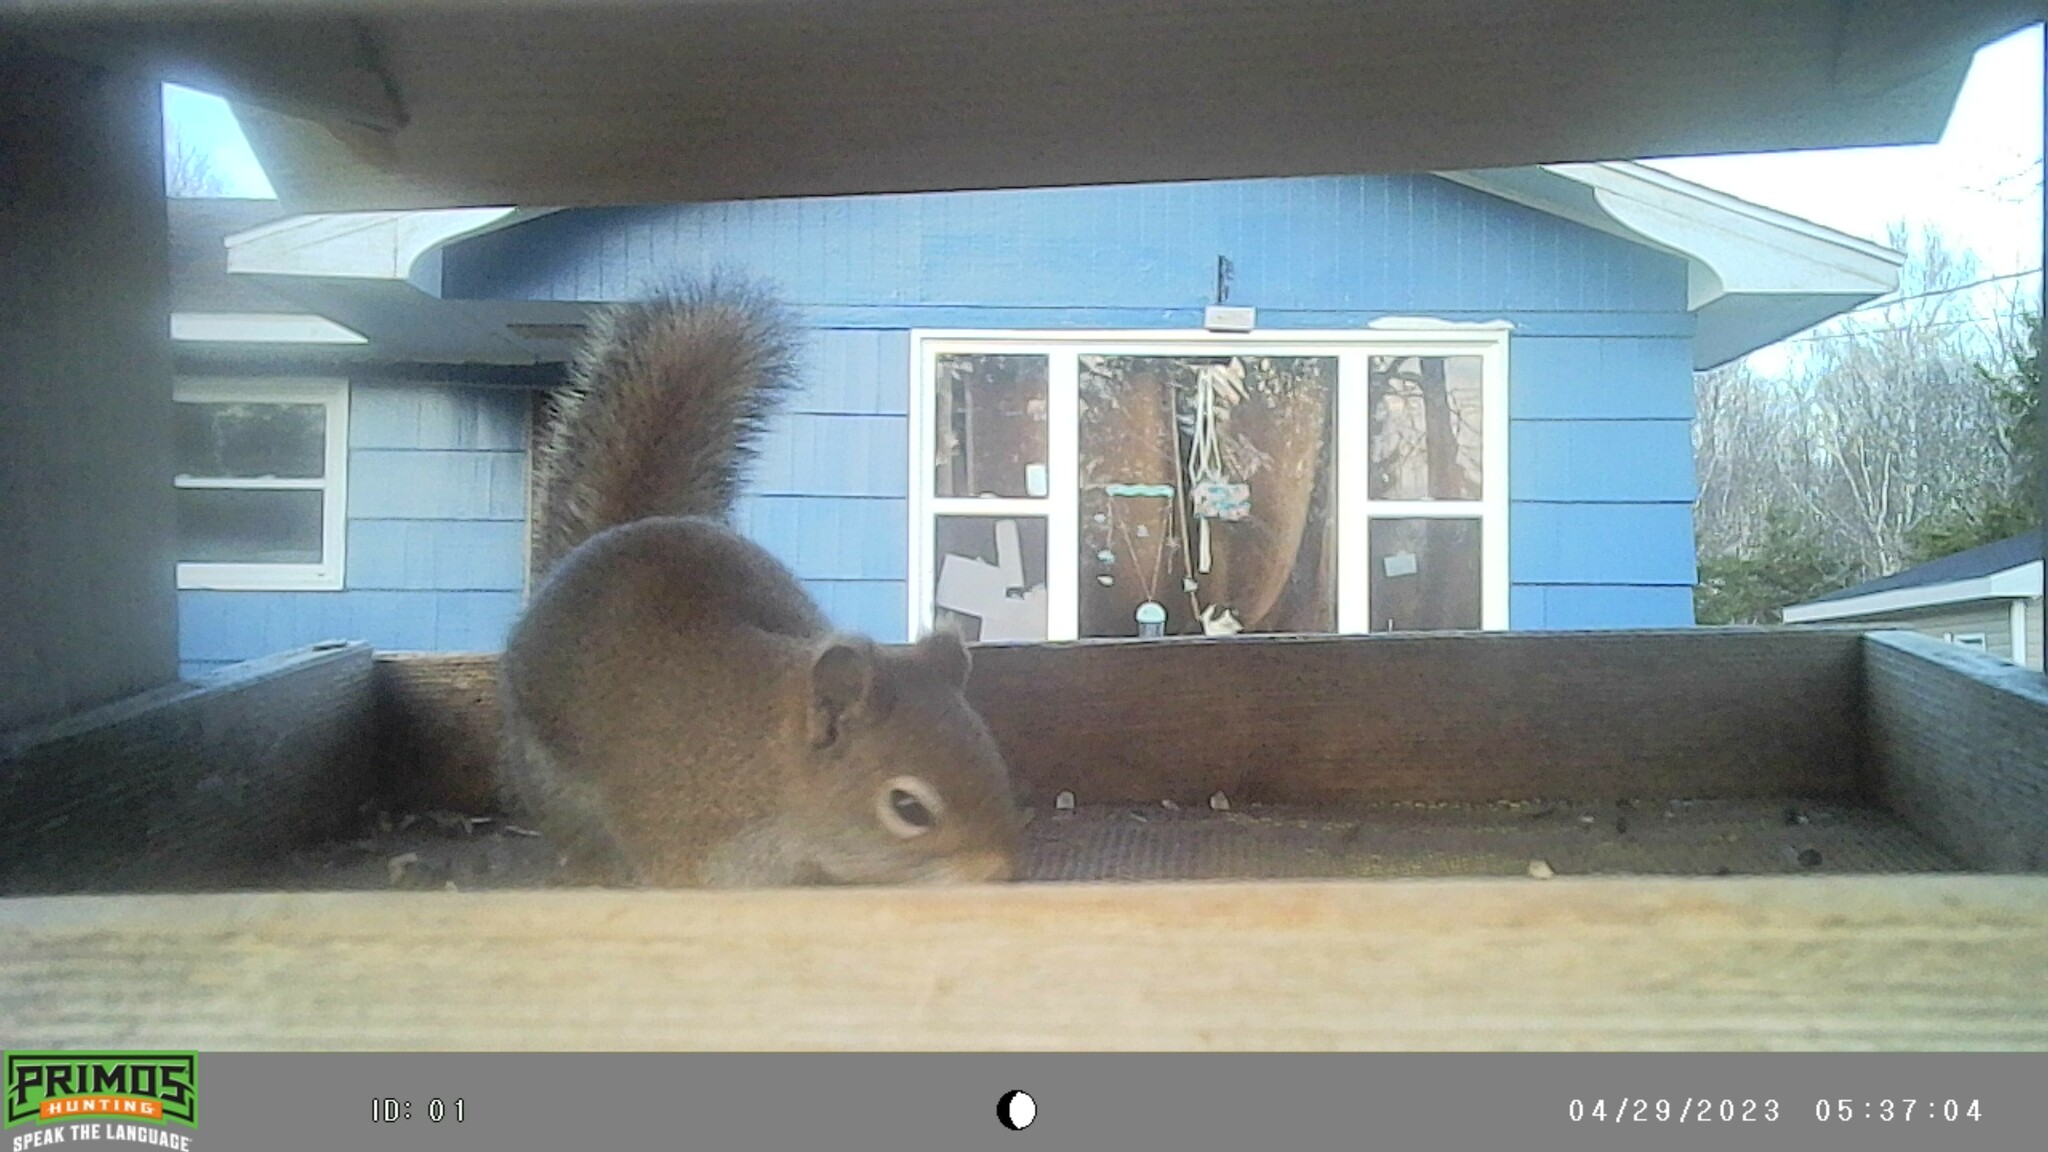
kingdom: Animalia
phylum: Chordata
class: Mammalia
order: Rodentia
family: Sciuridae
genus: Tamiasciurus
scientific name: Tamiasciurus hudsonicus
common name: Red squirrel
